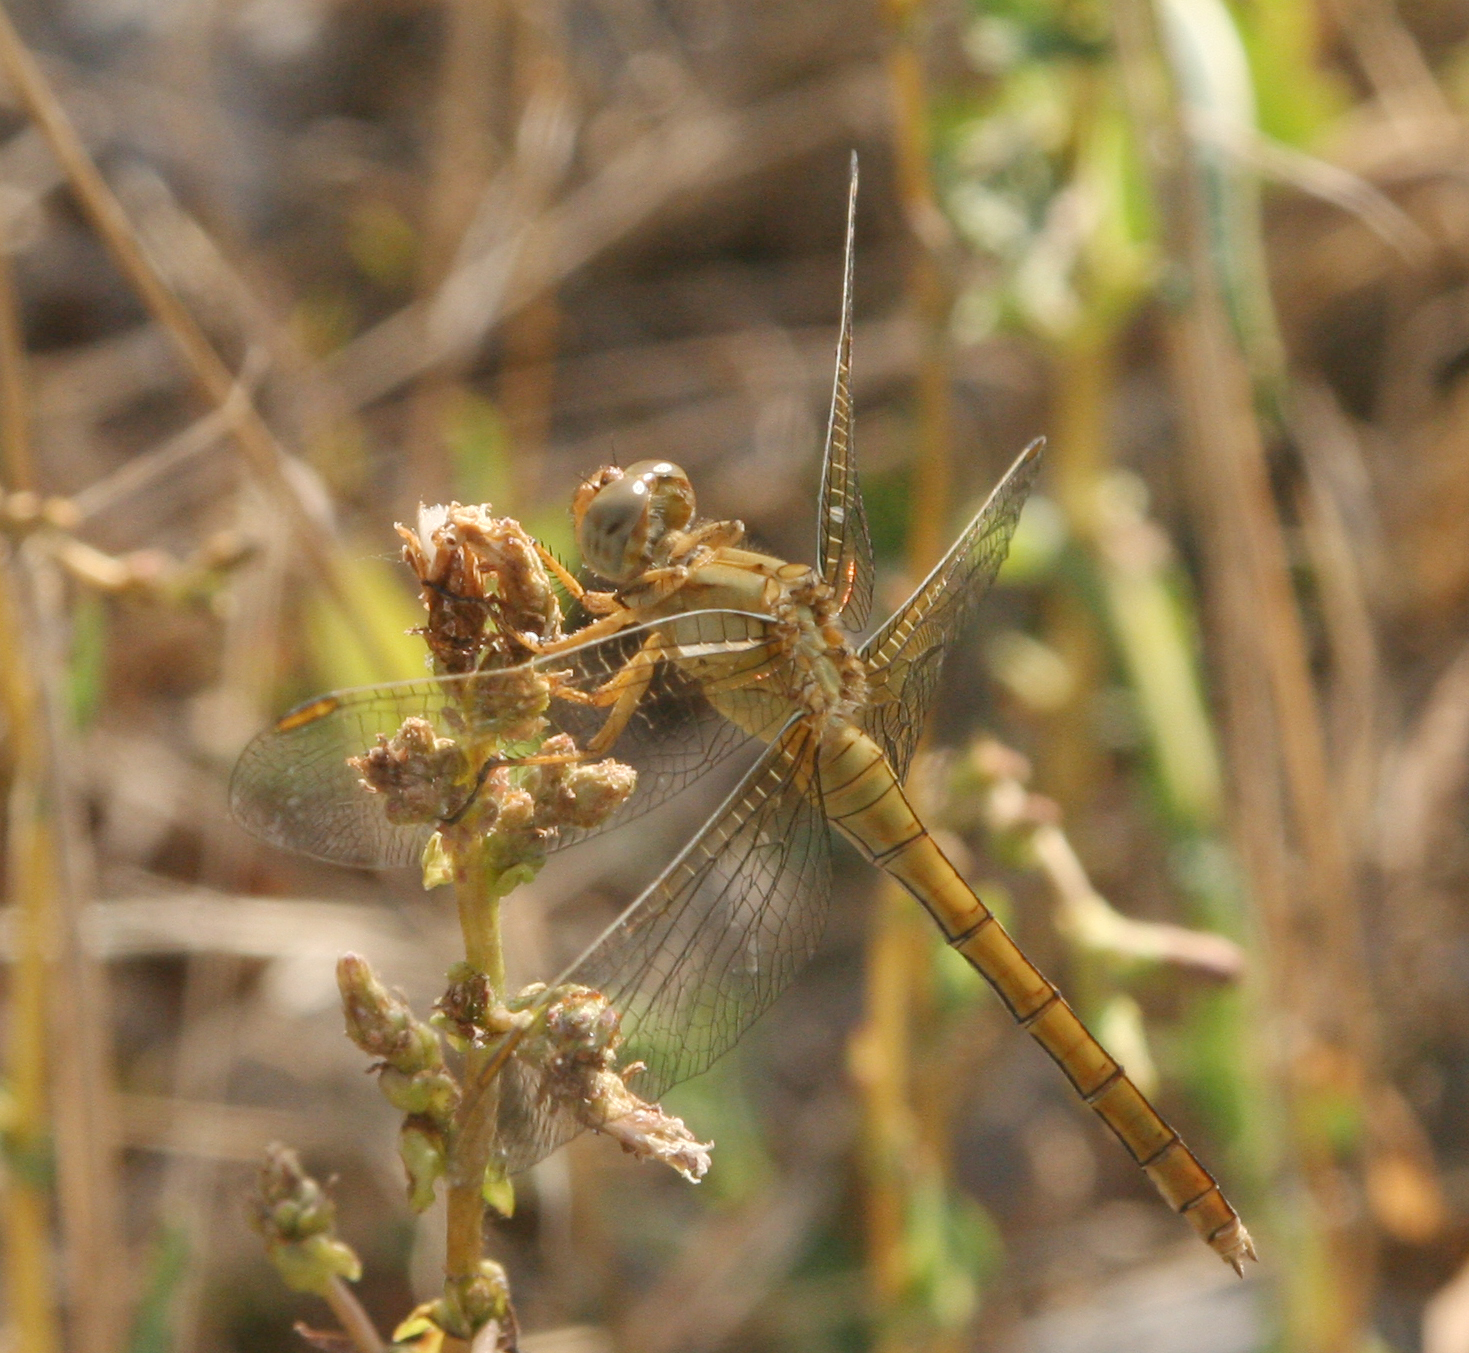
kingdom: Animalia
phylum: Arthropoda
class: Insecta
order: Odonata
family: Libellulidae
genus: Orthetrum
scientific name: Orthetrum coerulescens
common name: Keeled skimmer
